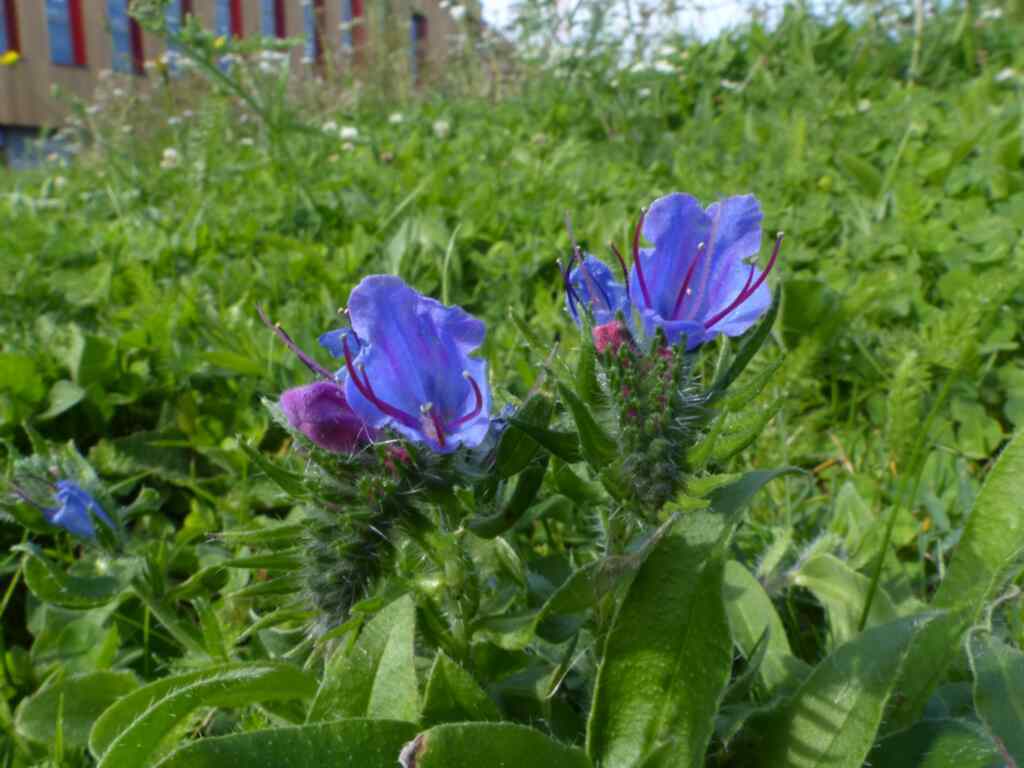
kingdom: Plantae
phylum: Tracheophyta
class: Magnoliopsida
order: Boraginales
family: Boraginaceae
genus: Echium
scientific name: Echium vulgare
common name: Common viper's bugloss
